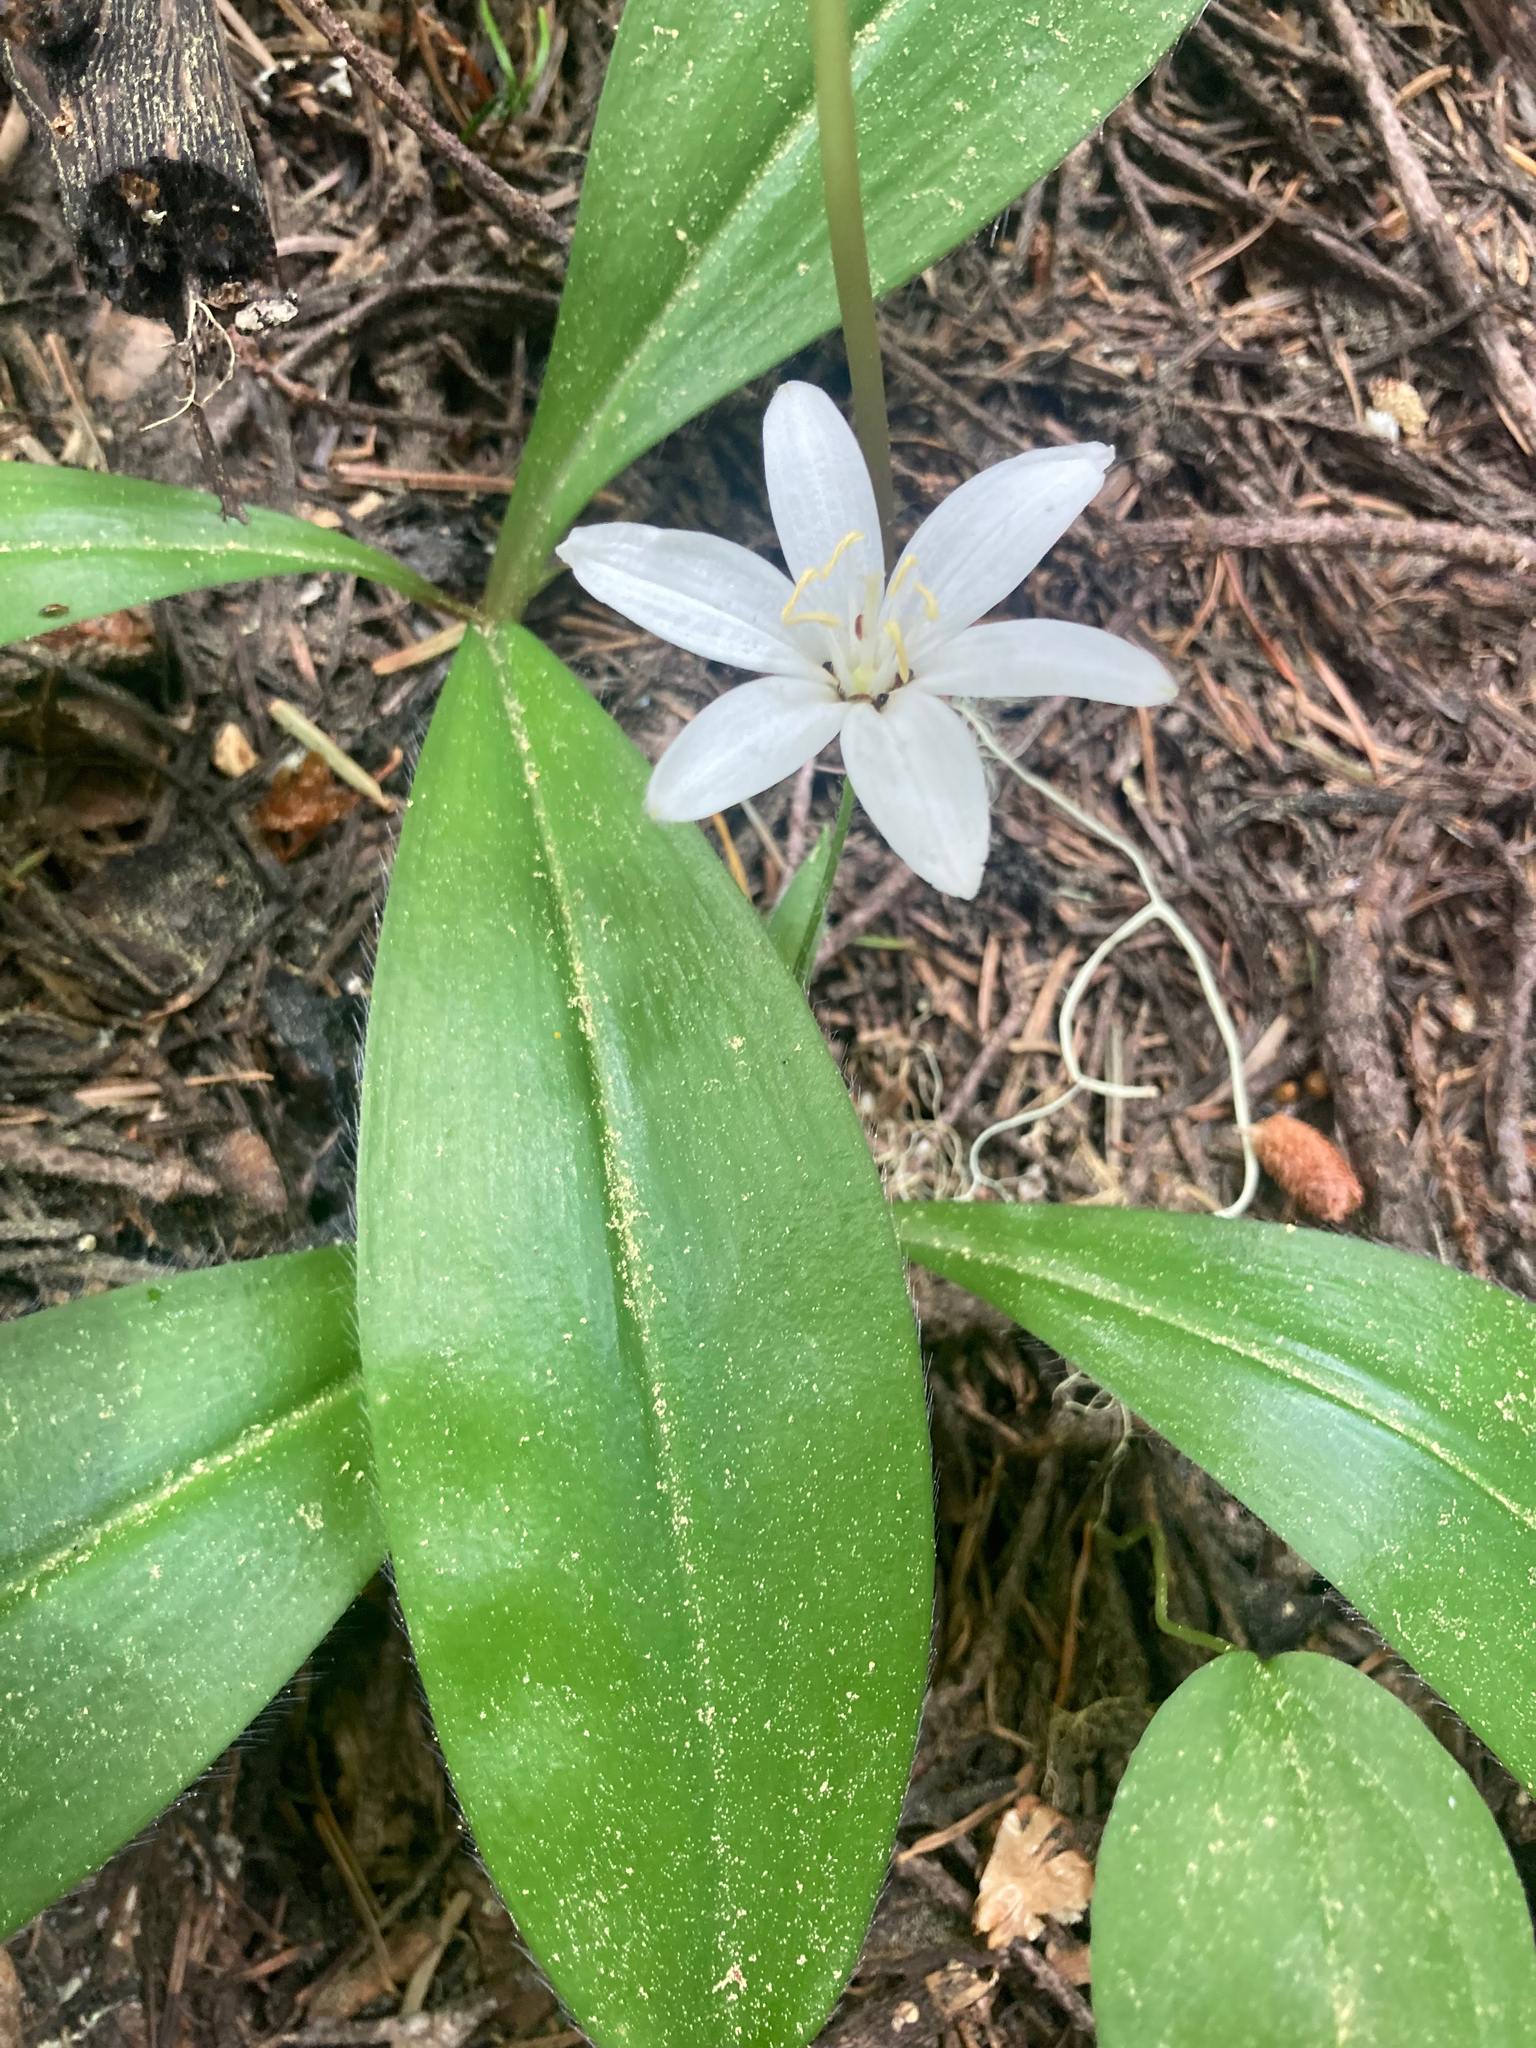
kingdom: Plantae
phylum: Tracheophyta
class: Liliopsida
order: Liliales
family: Liliaceae
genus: Clintonia
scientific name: Clintonia uniflora
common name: Queen's cup
